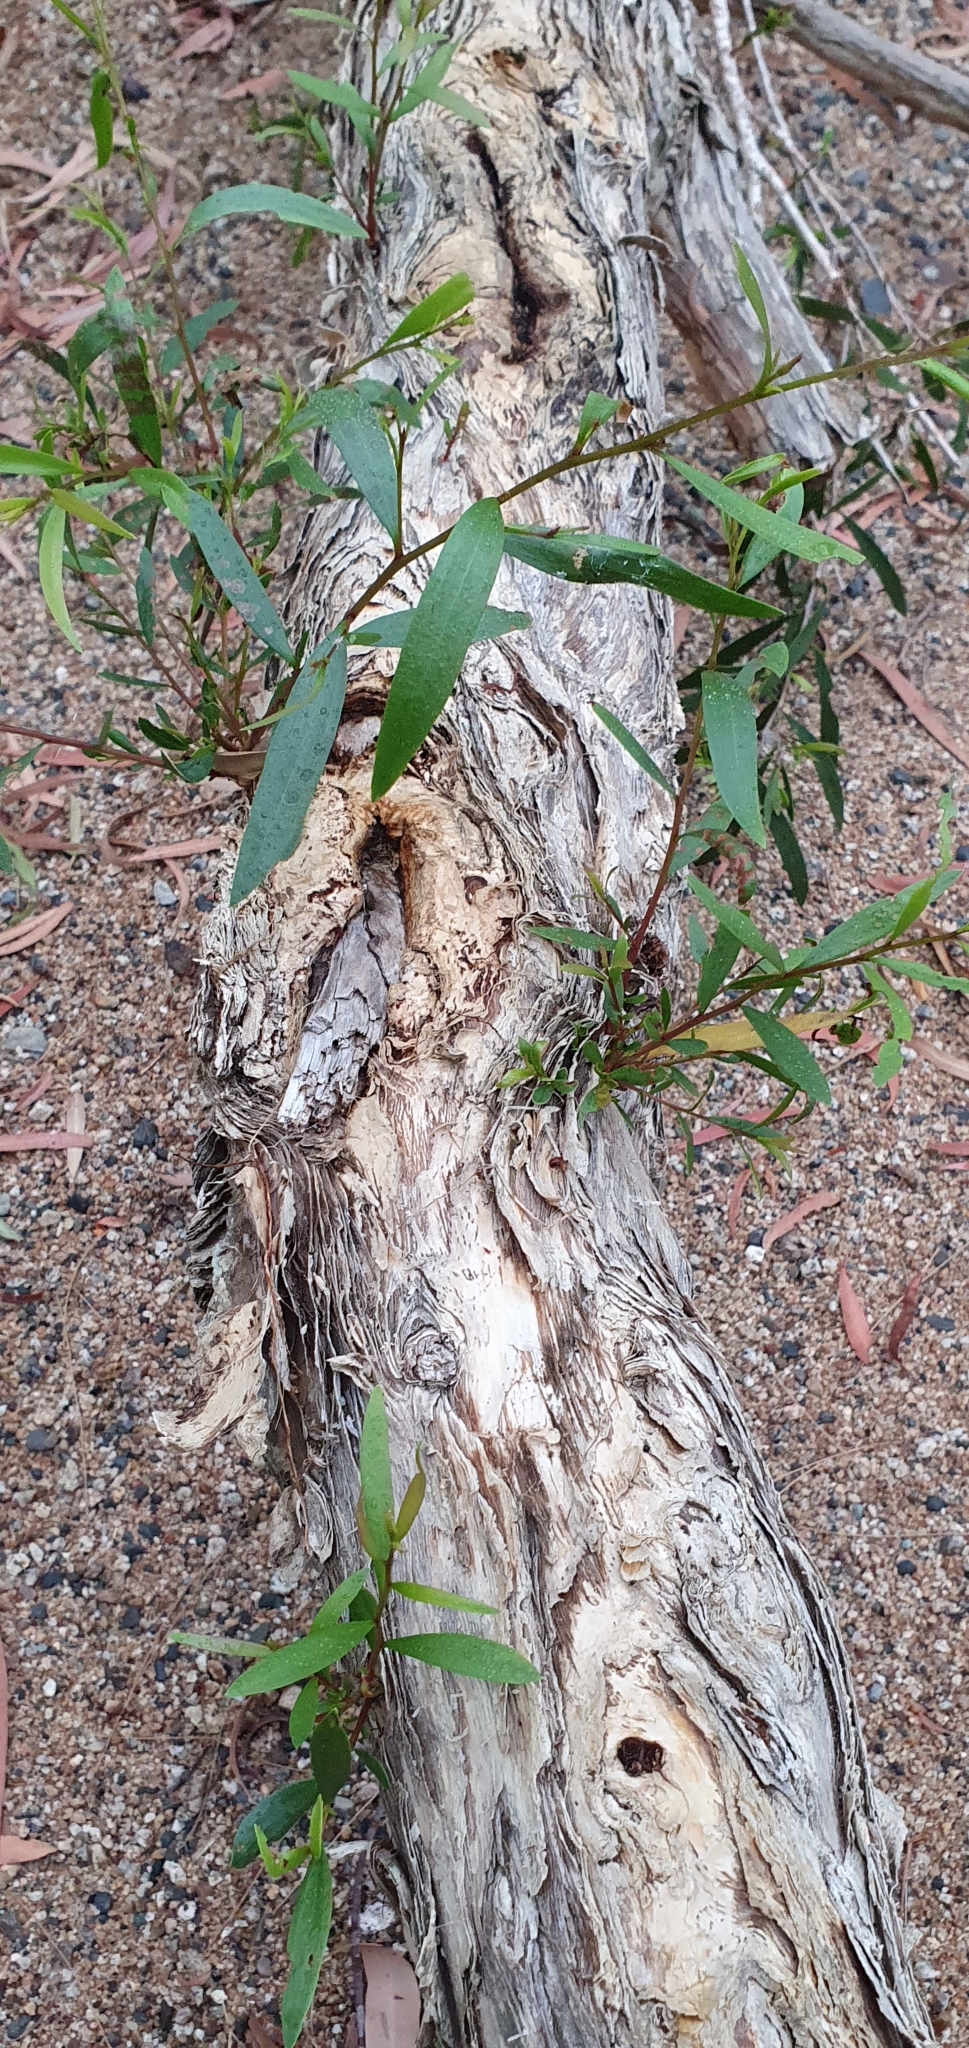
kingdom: Plantae
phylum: Tracheophyta
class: Magnoliopsida
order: Myrtales
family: Myrtaceae
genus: Melaleuca
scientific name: Melaleuca fluviatilis
